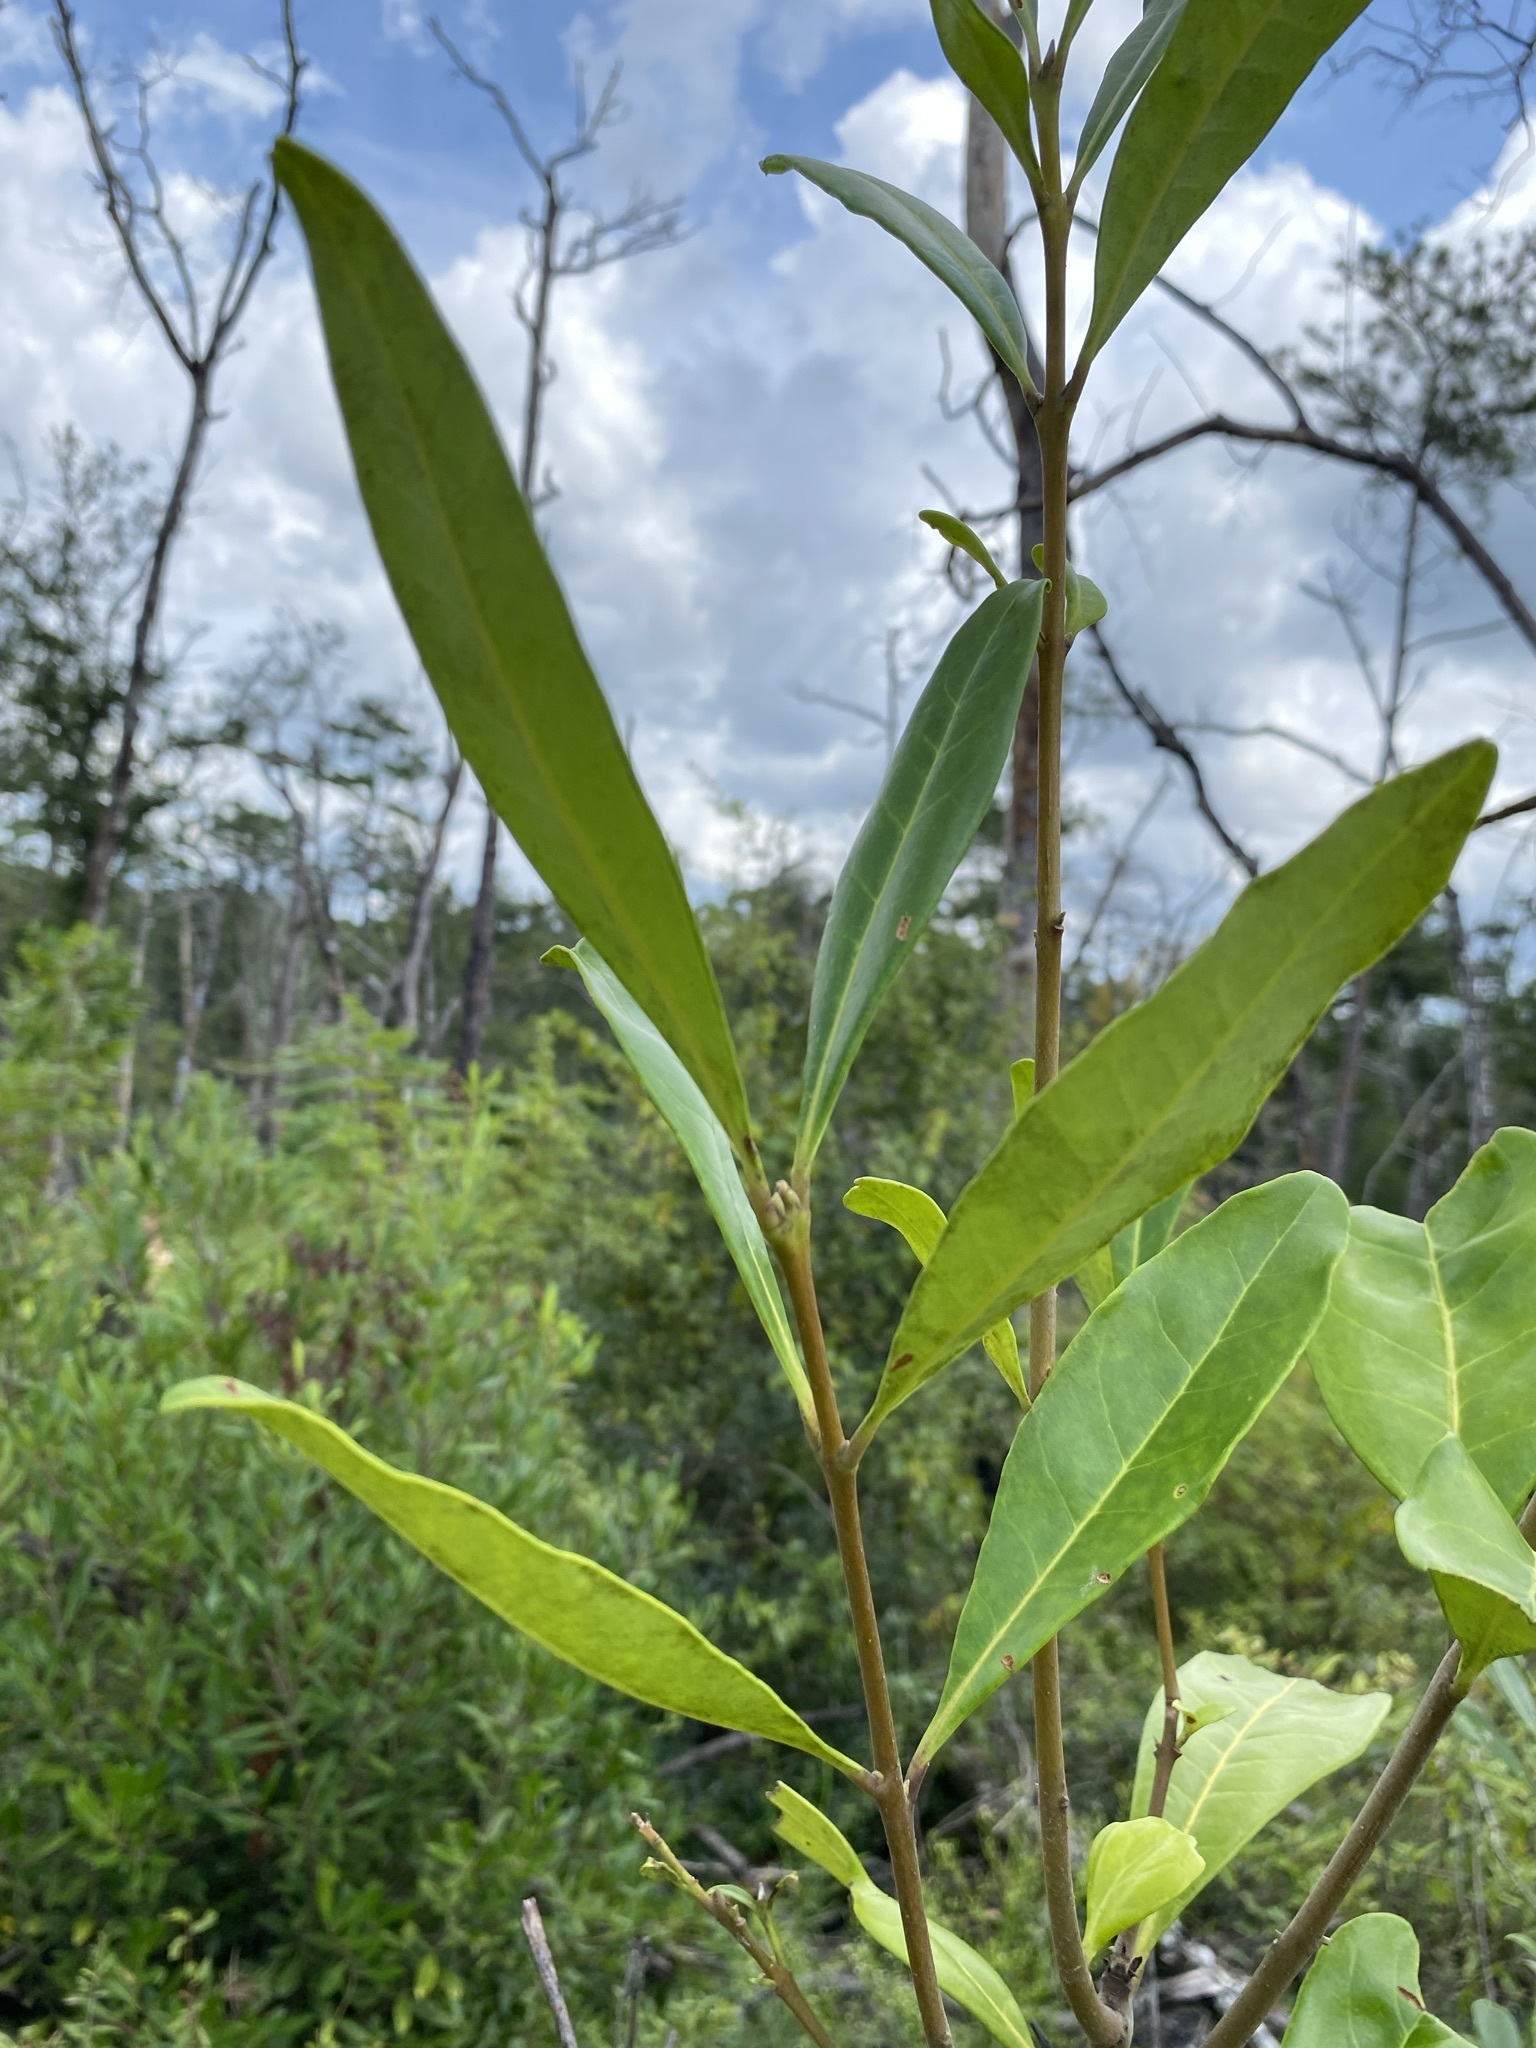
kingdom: Plantae
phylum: Tracheophyta
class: Magnoliopsida
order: Lamiales
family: Oleaceae
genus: Cartrema
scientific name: Cartrema americana
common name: Devilwood
